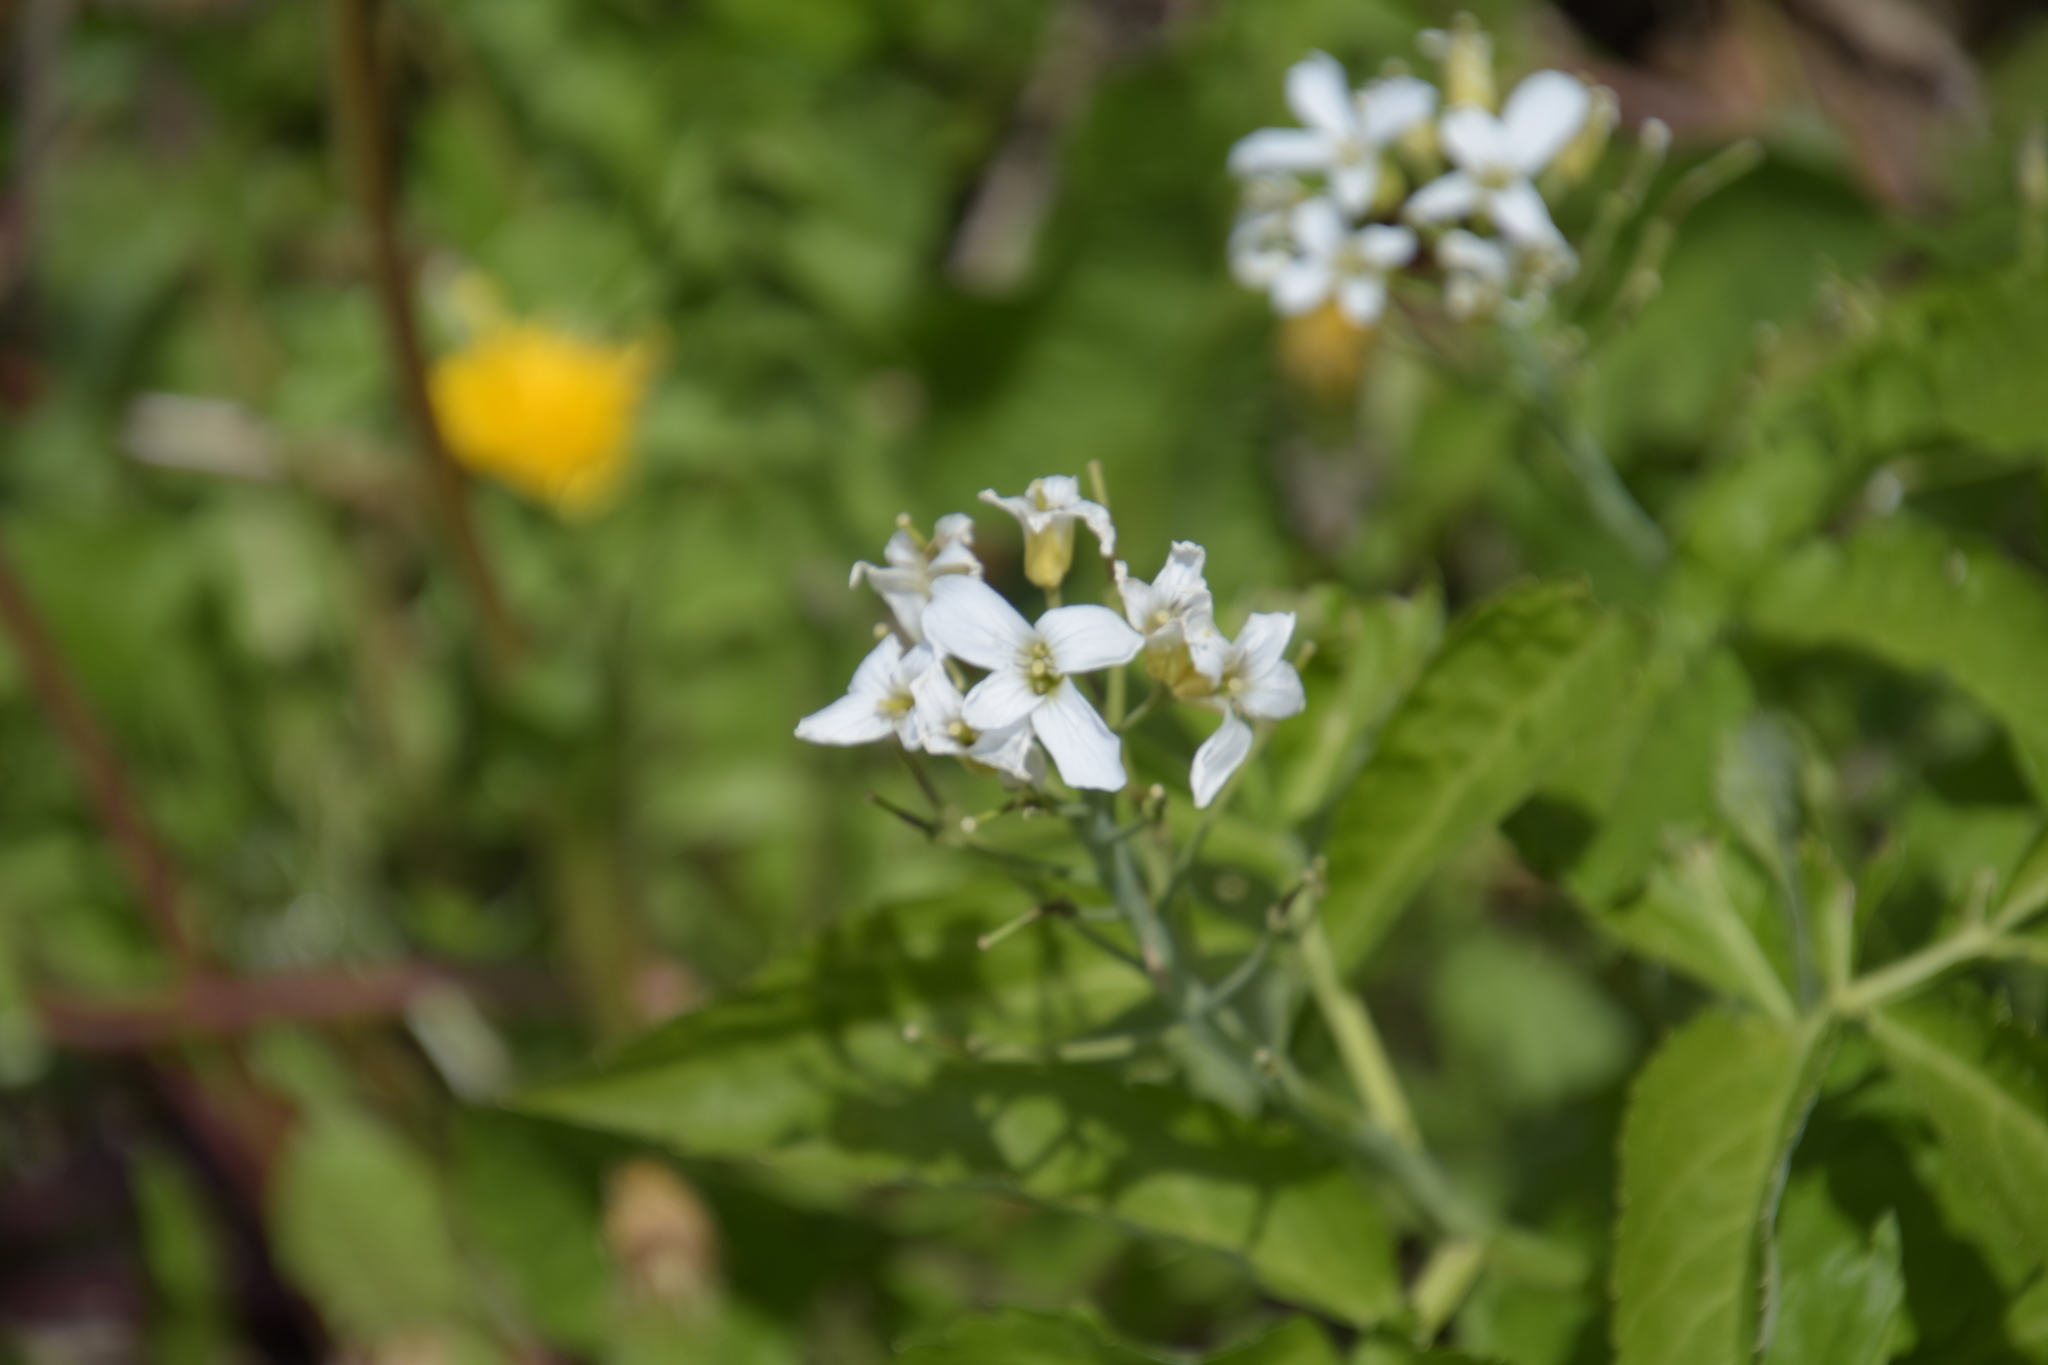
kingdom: Plantae
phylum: Tracheophyta
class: Magnoliopsida
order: Brassicales
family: Brassicaceae
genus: Cardamine
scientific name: Cardamine heptaphylla
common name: Pinnate coralroot
